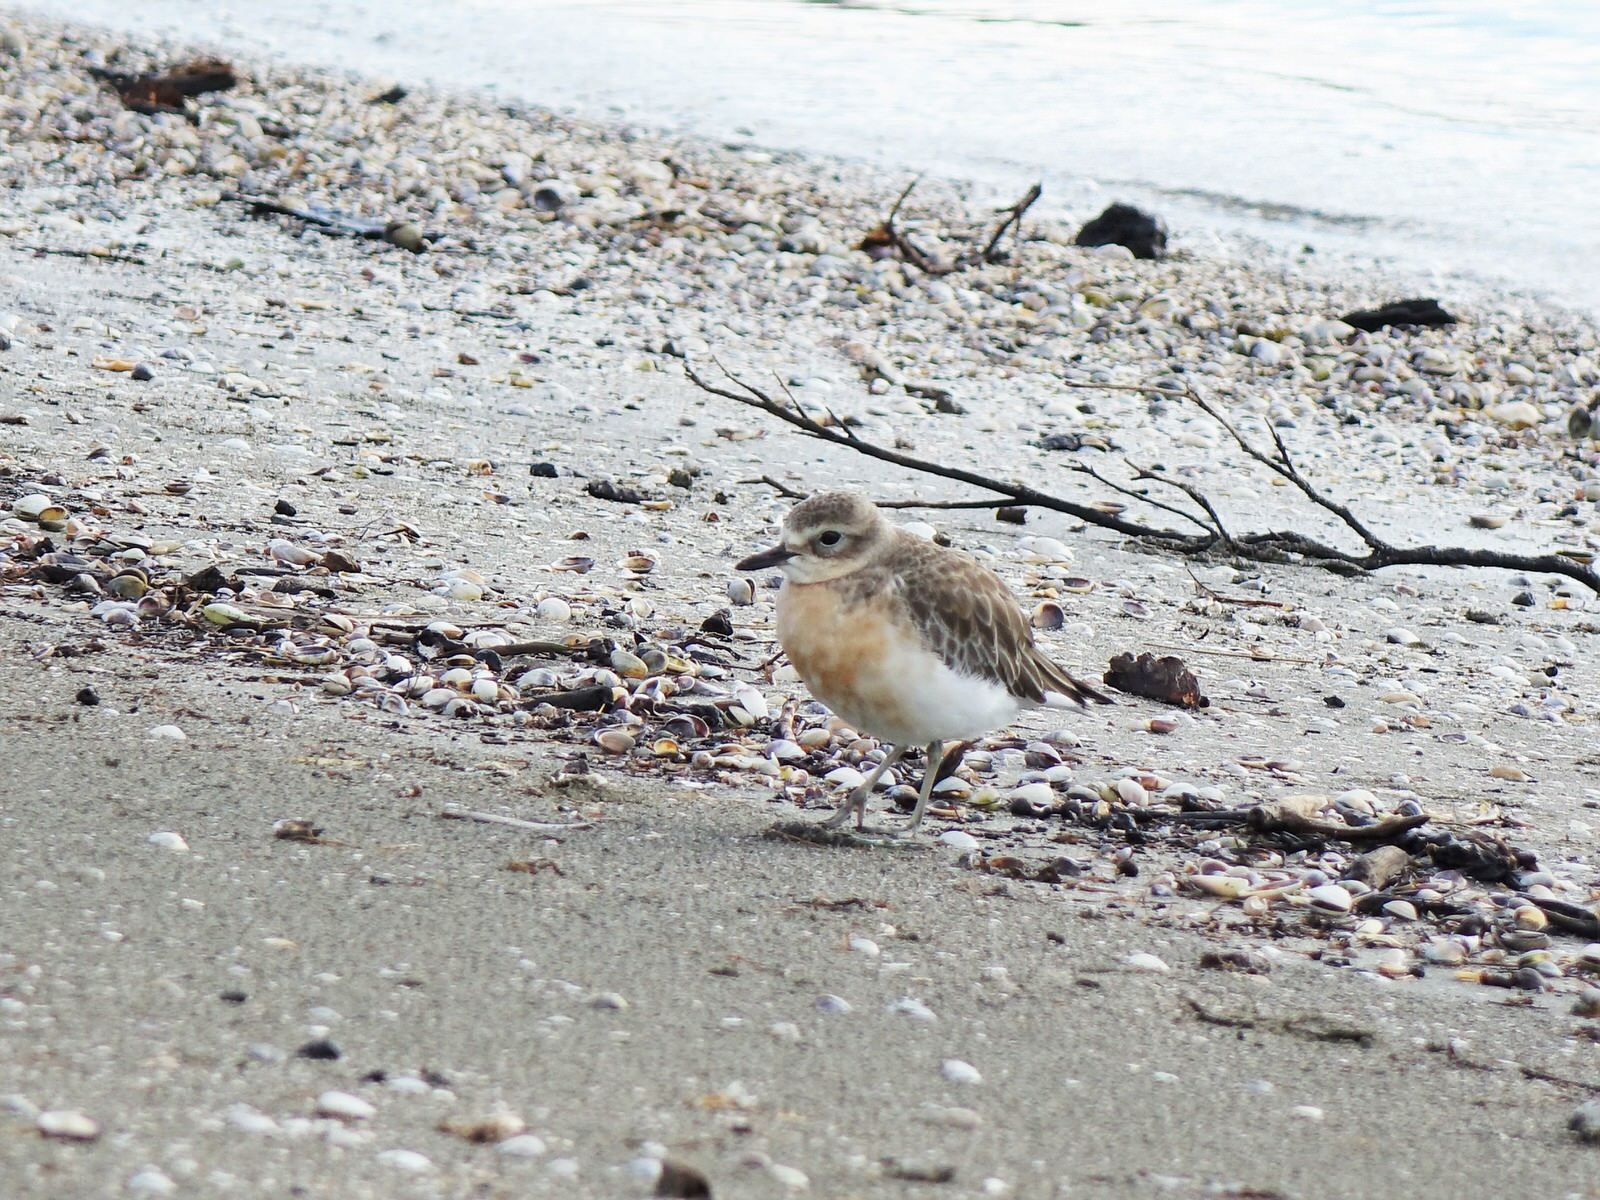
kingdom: Animalia
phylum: Chordata
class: Aves
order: Charadriiformes
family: Charadriidae
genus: Anarhynchus
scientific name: Anarhynchus
